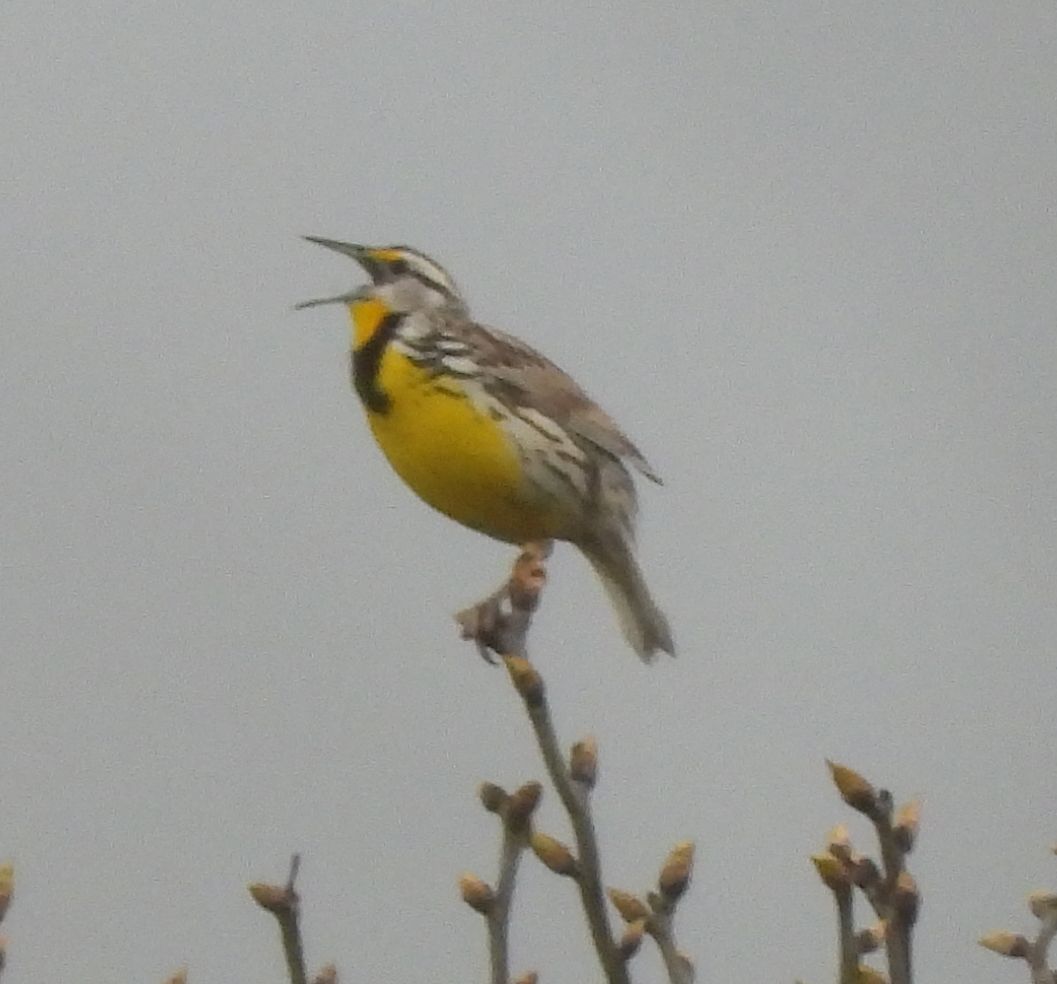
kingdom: Animalia
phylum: Chordata
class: Aves
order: Passeriformes
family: Icteridae
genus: Sturnella
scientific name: Sturnella magna
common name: Eastern meadowlark
